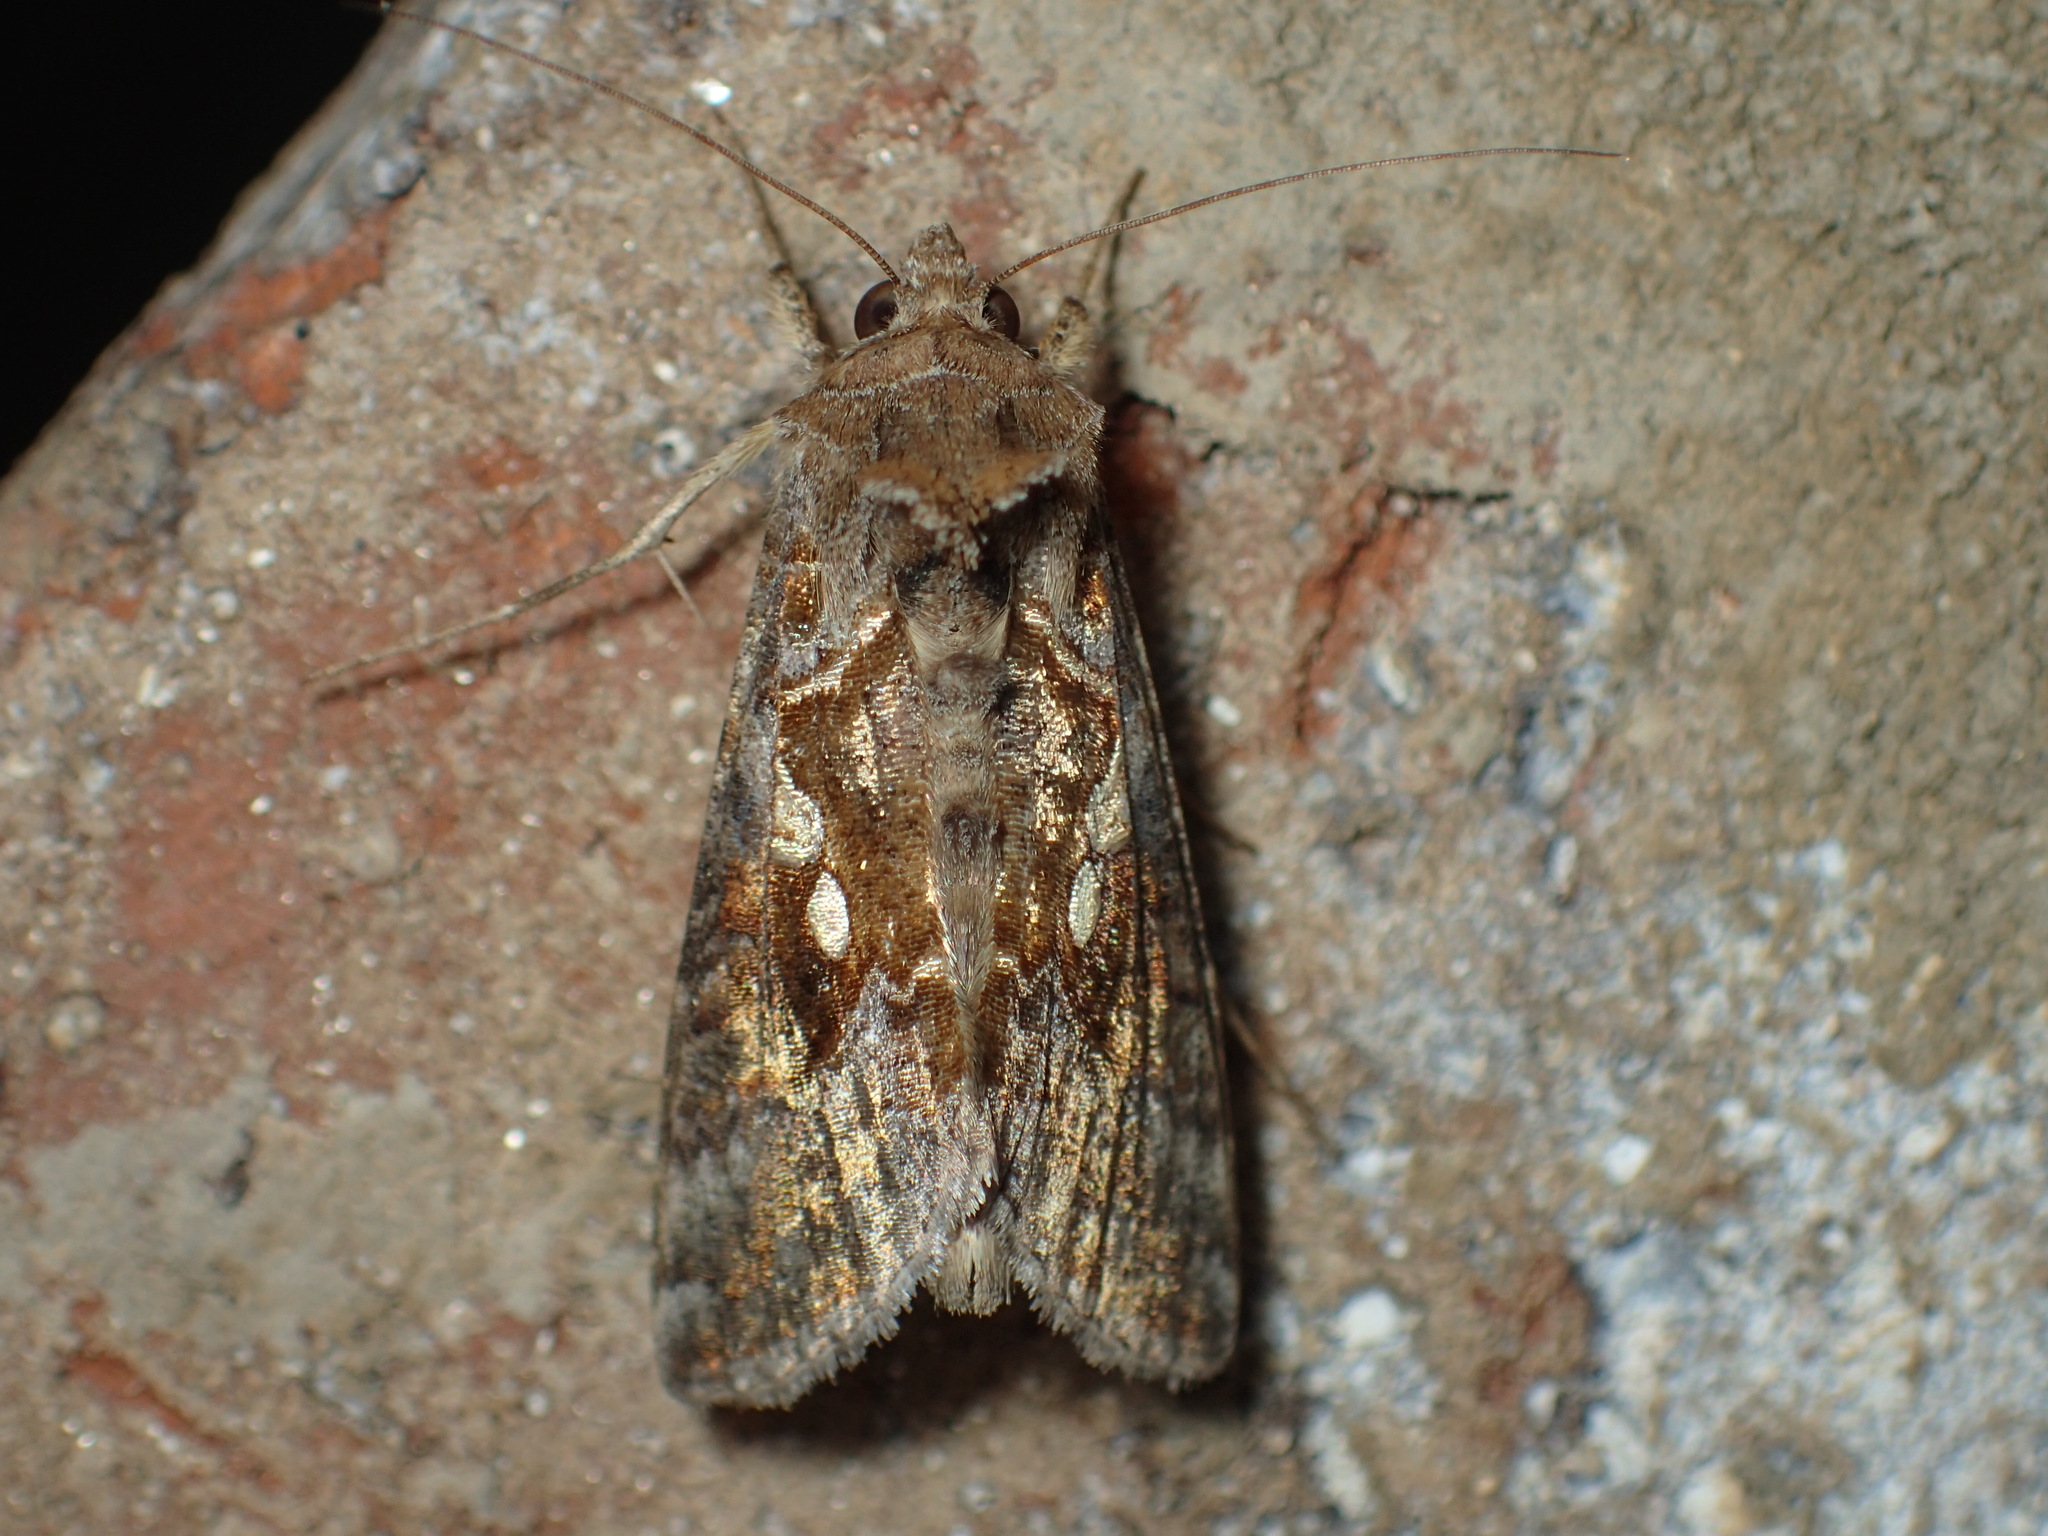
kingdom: Animalia
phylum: Arthropoda
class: Insecta
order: Lepidoptera
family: Noctuidae
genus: Chrysodeixis
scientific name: Chrysodeixis includens
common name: Cutworm moth
